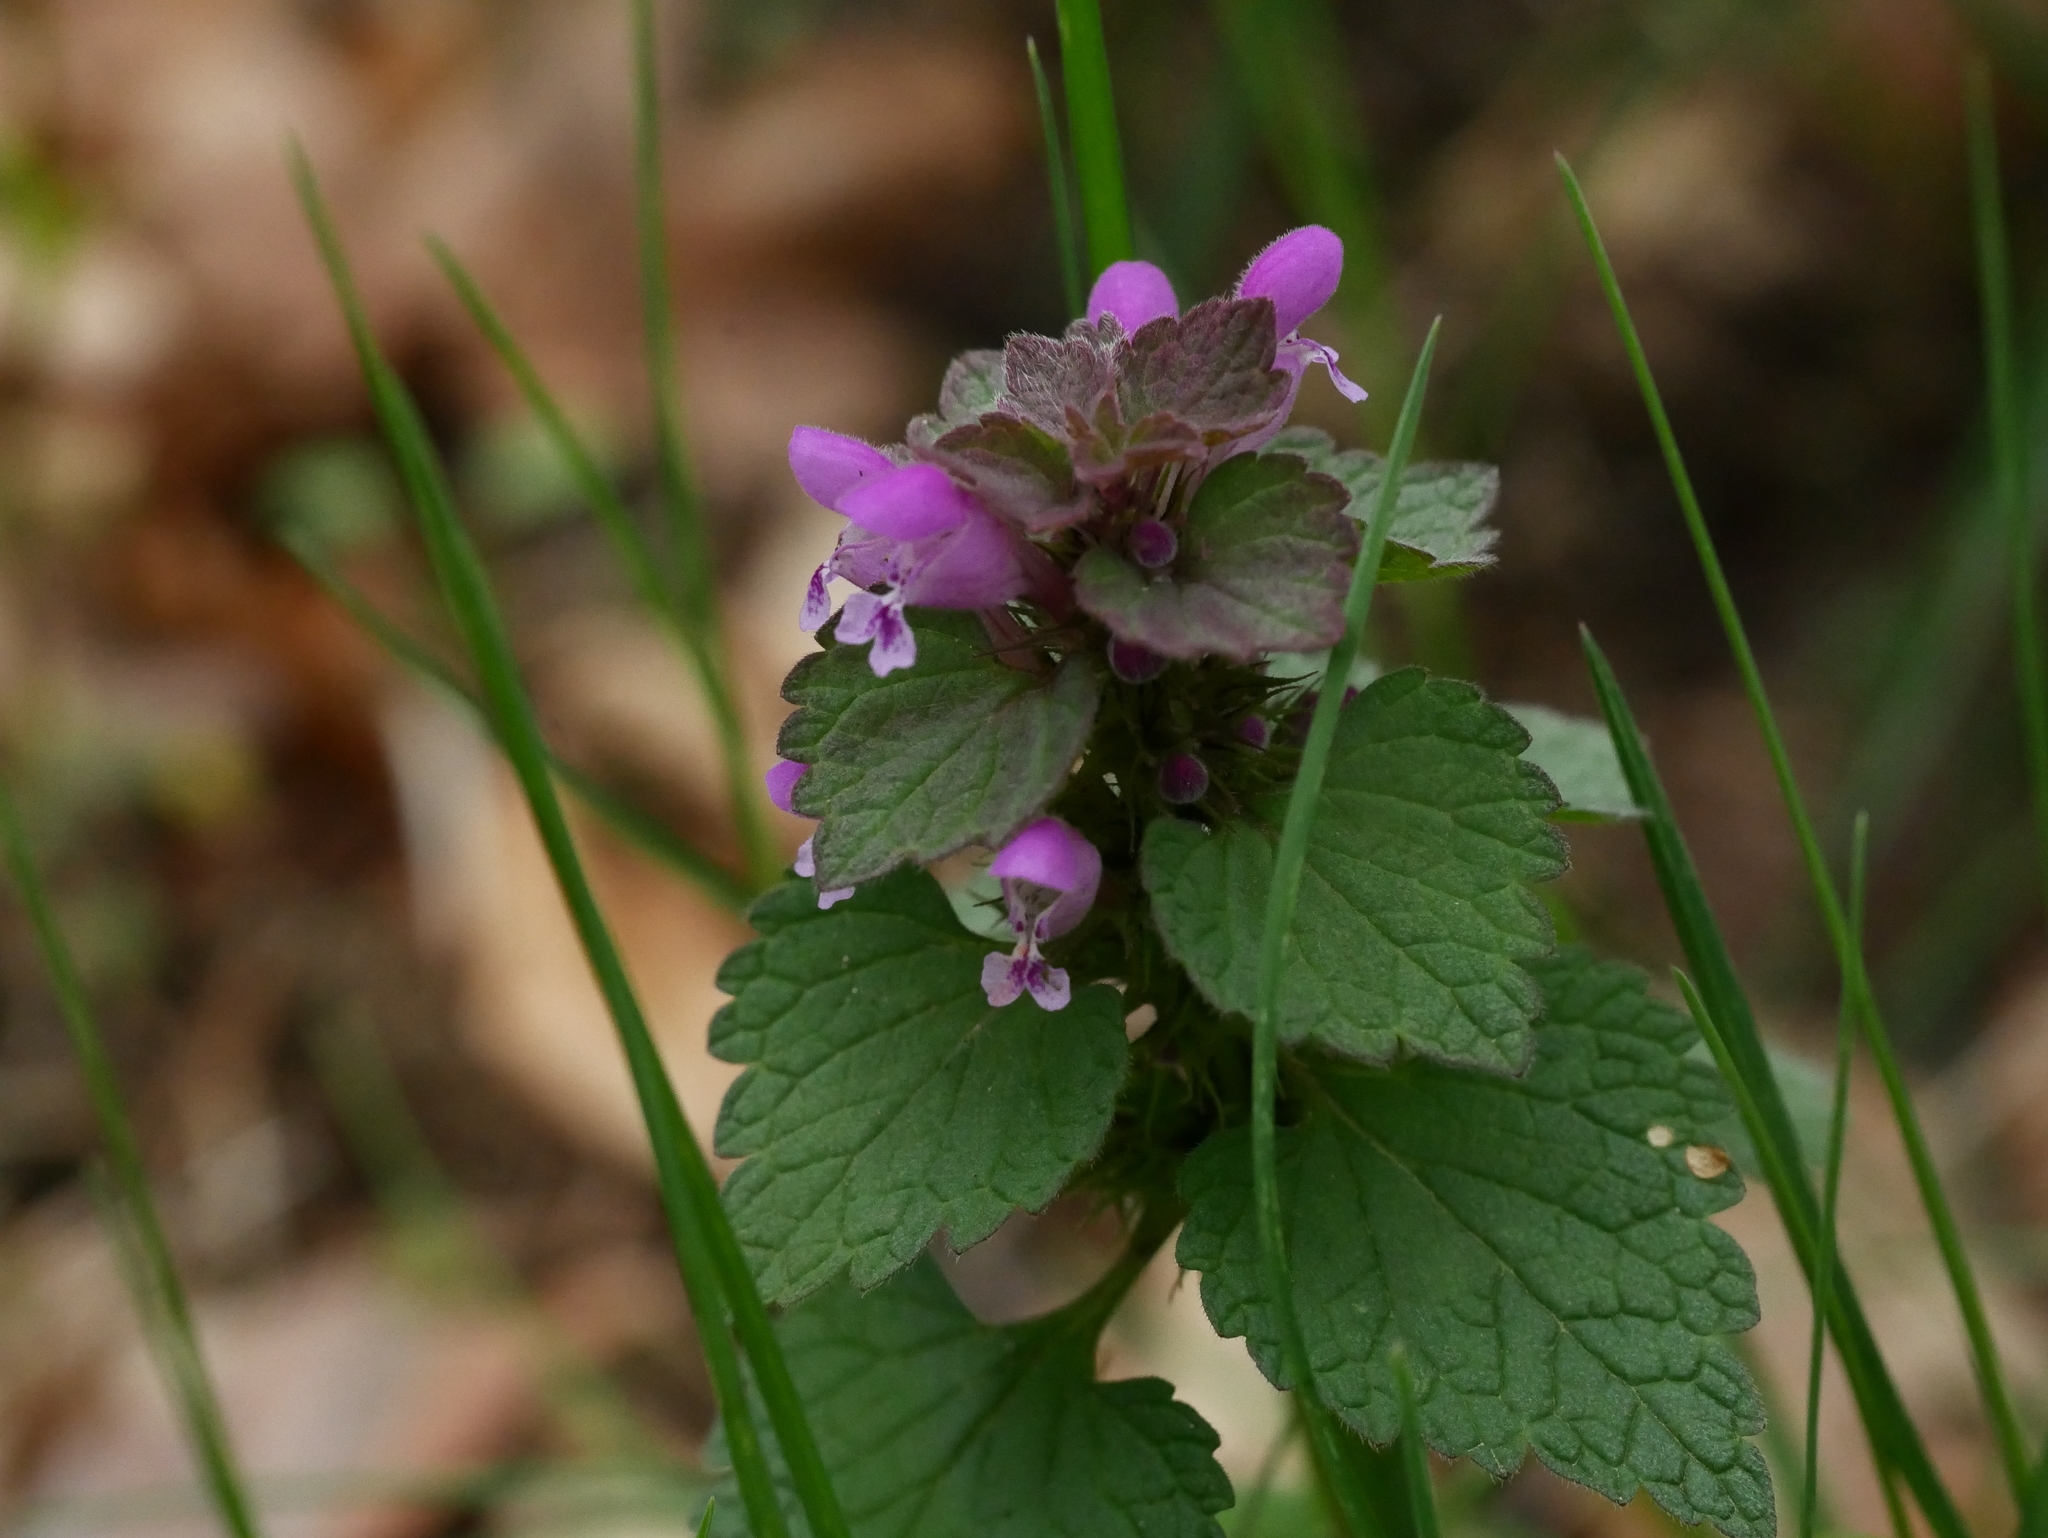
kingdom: Plantae
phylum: Tracheophyta
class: Magnoliopsida
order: Lamiales
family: Lamiaceae
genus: Lamium
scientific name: Lamium purpureum
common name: Red dead-nettle
